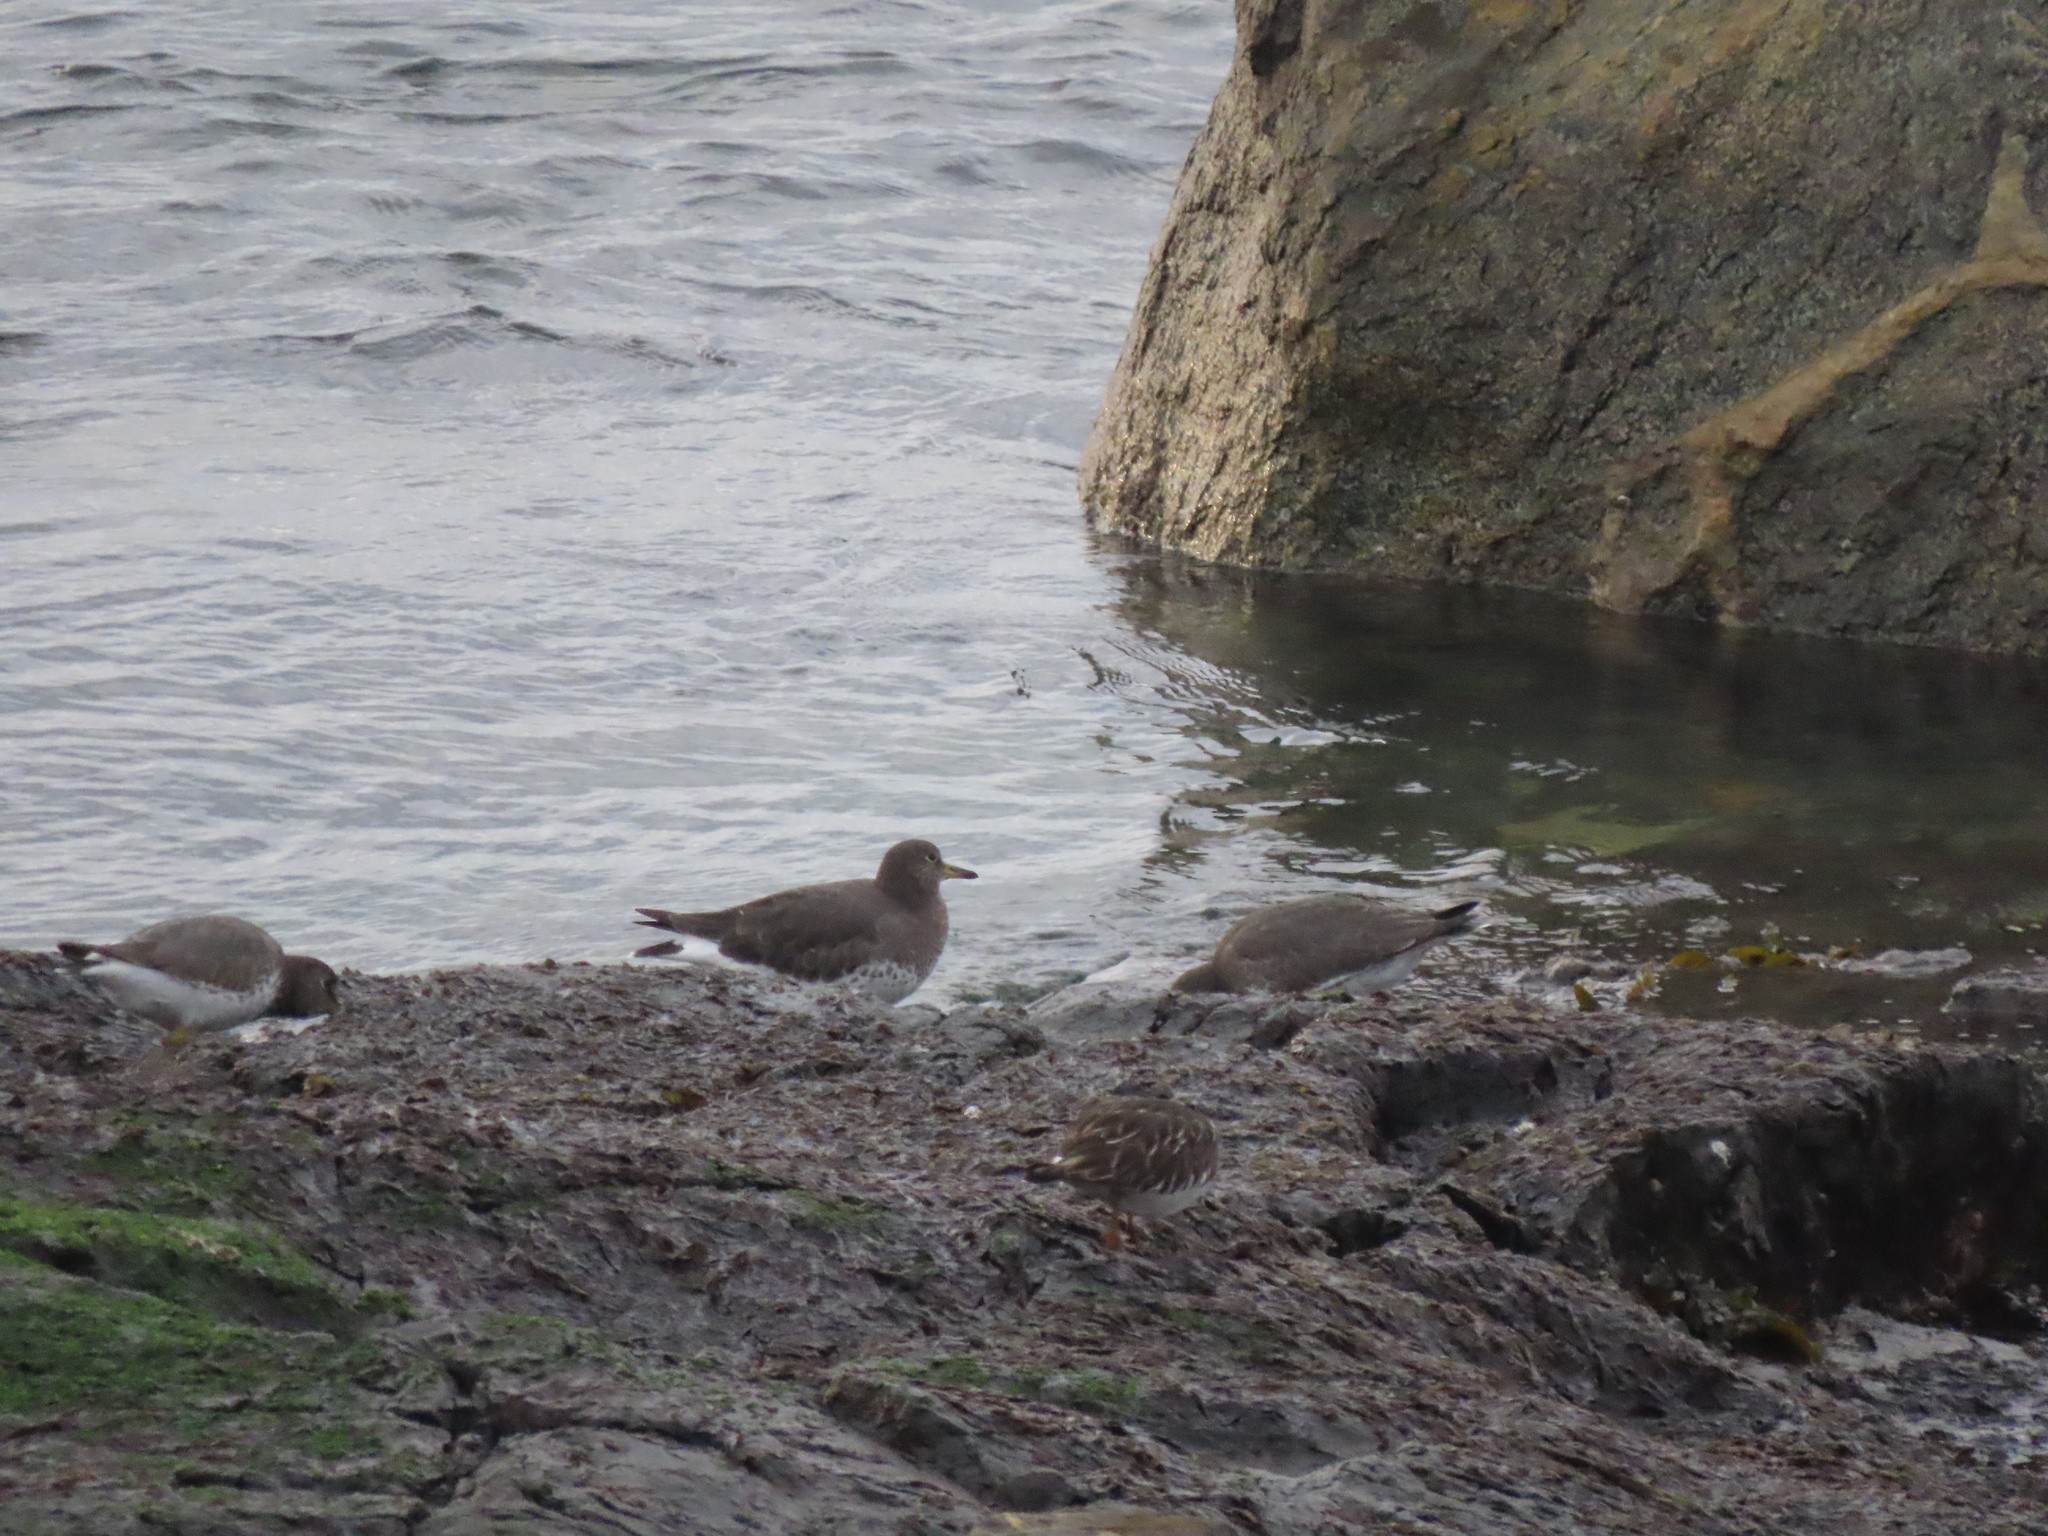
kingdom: Animalia
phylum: Chordata
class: Aves
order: Charadriiformes
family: Scolopacidae
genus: Calidris
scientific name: Calidris virgata
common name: Surfbird
